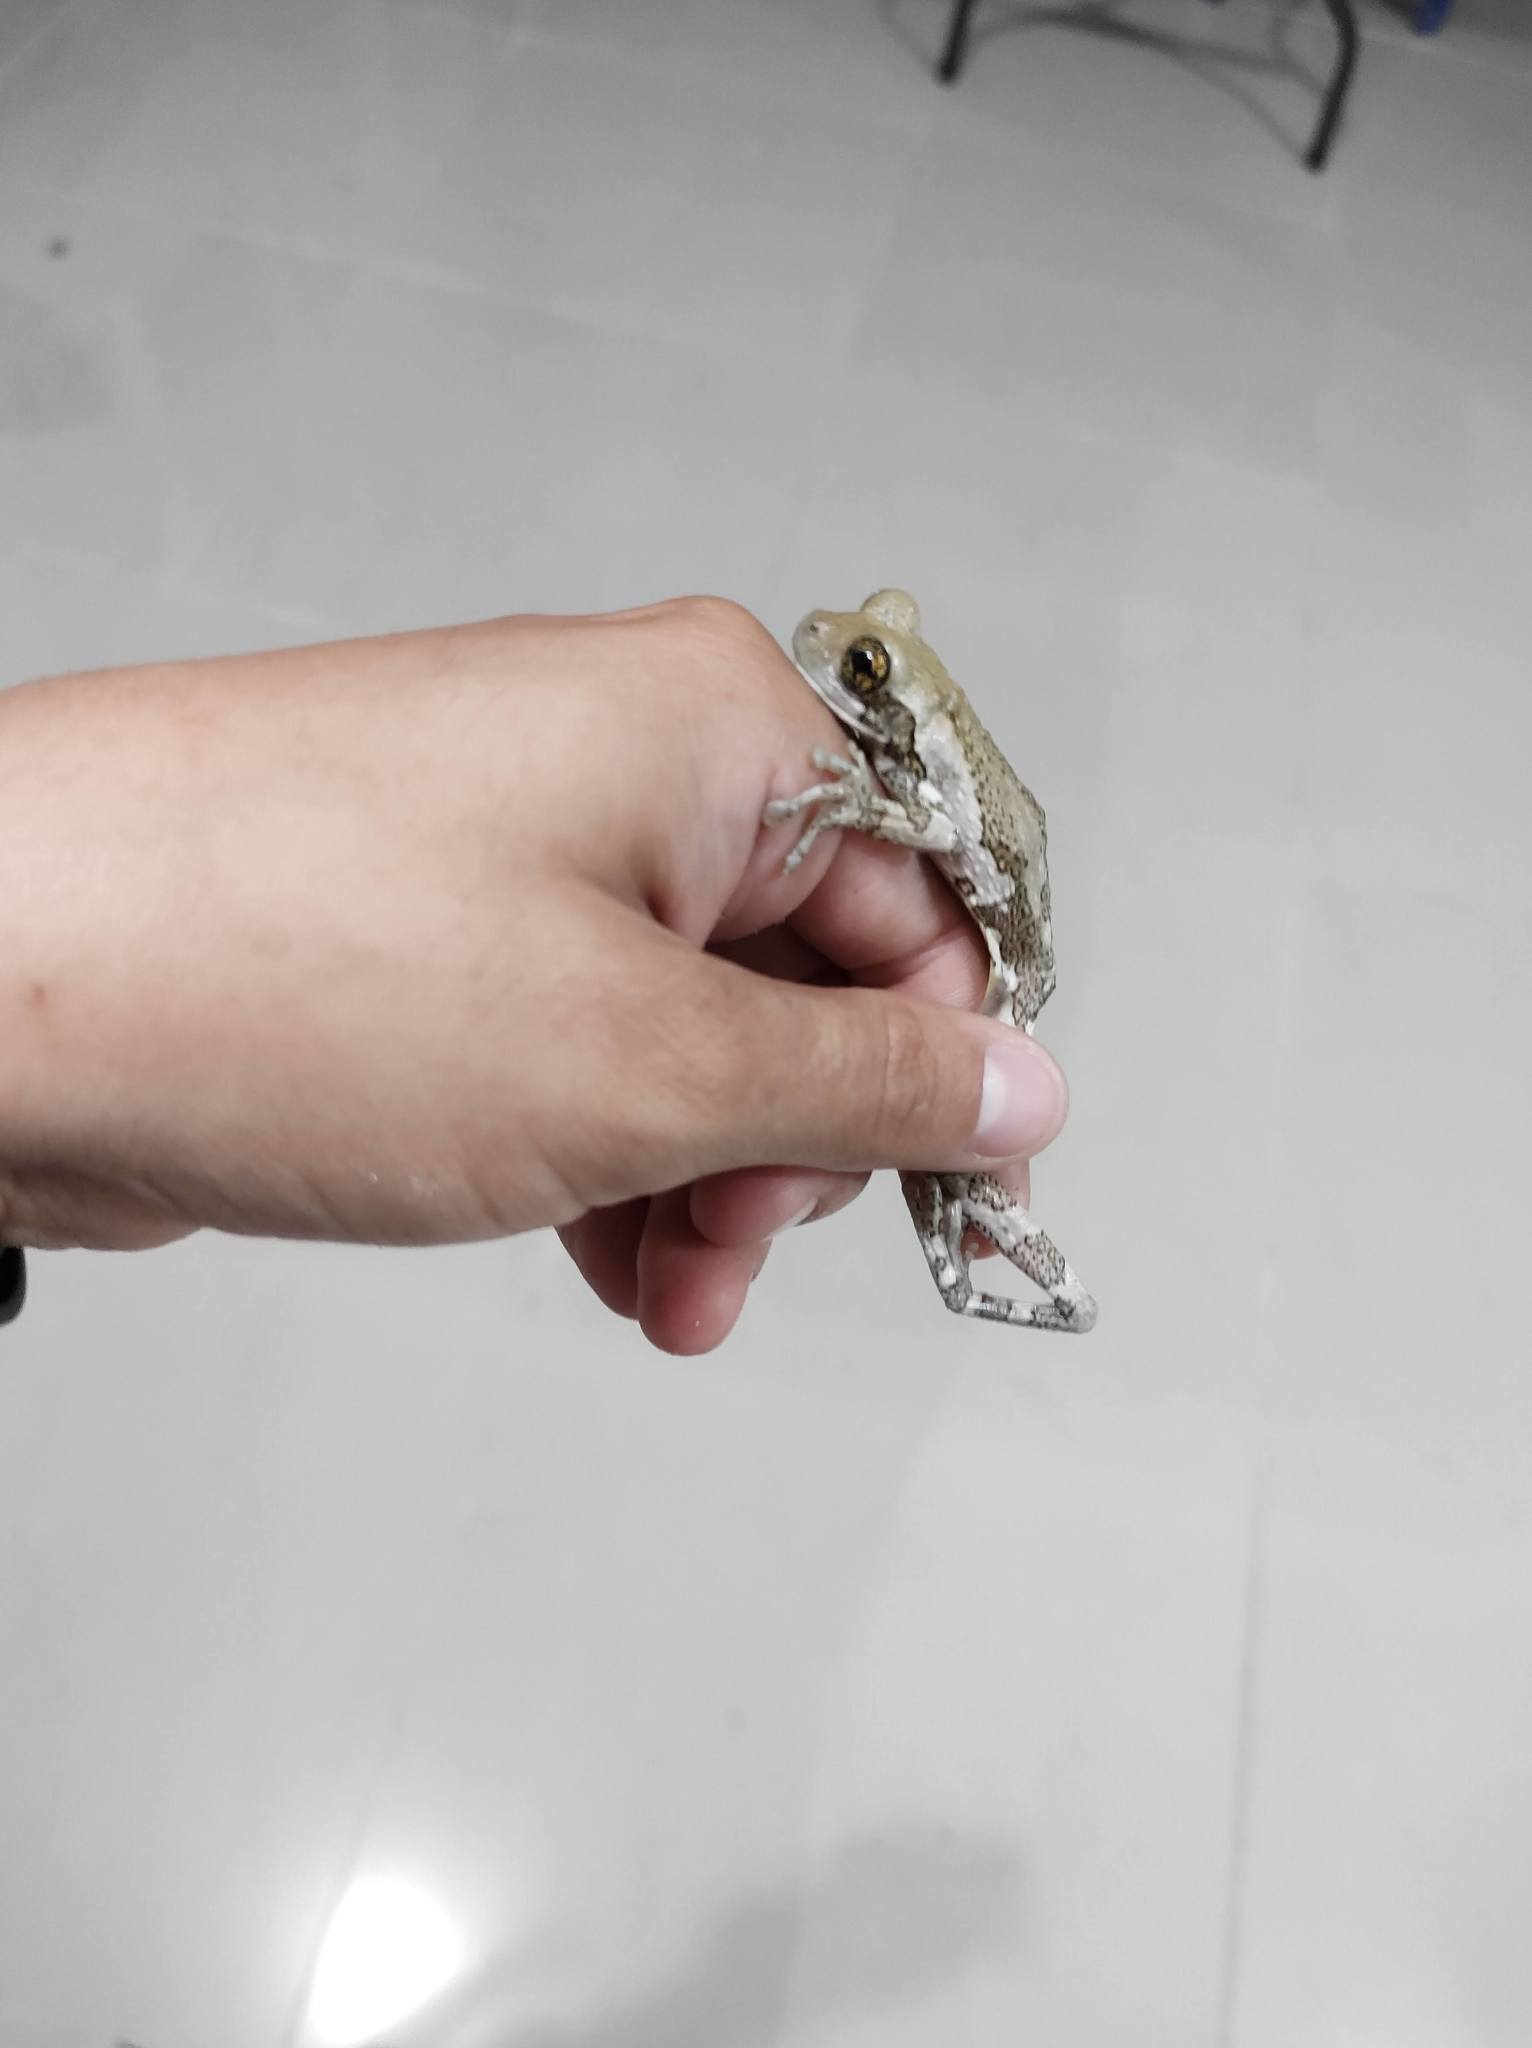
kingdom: Animalia
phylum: Chordata
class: Amphibia
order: Anura
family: Hylidae
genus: Trachycephalus
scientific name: Trachycephalus vermiculatus
